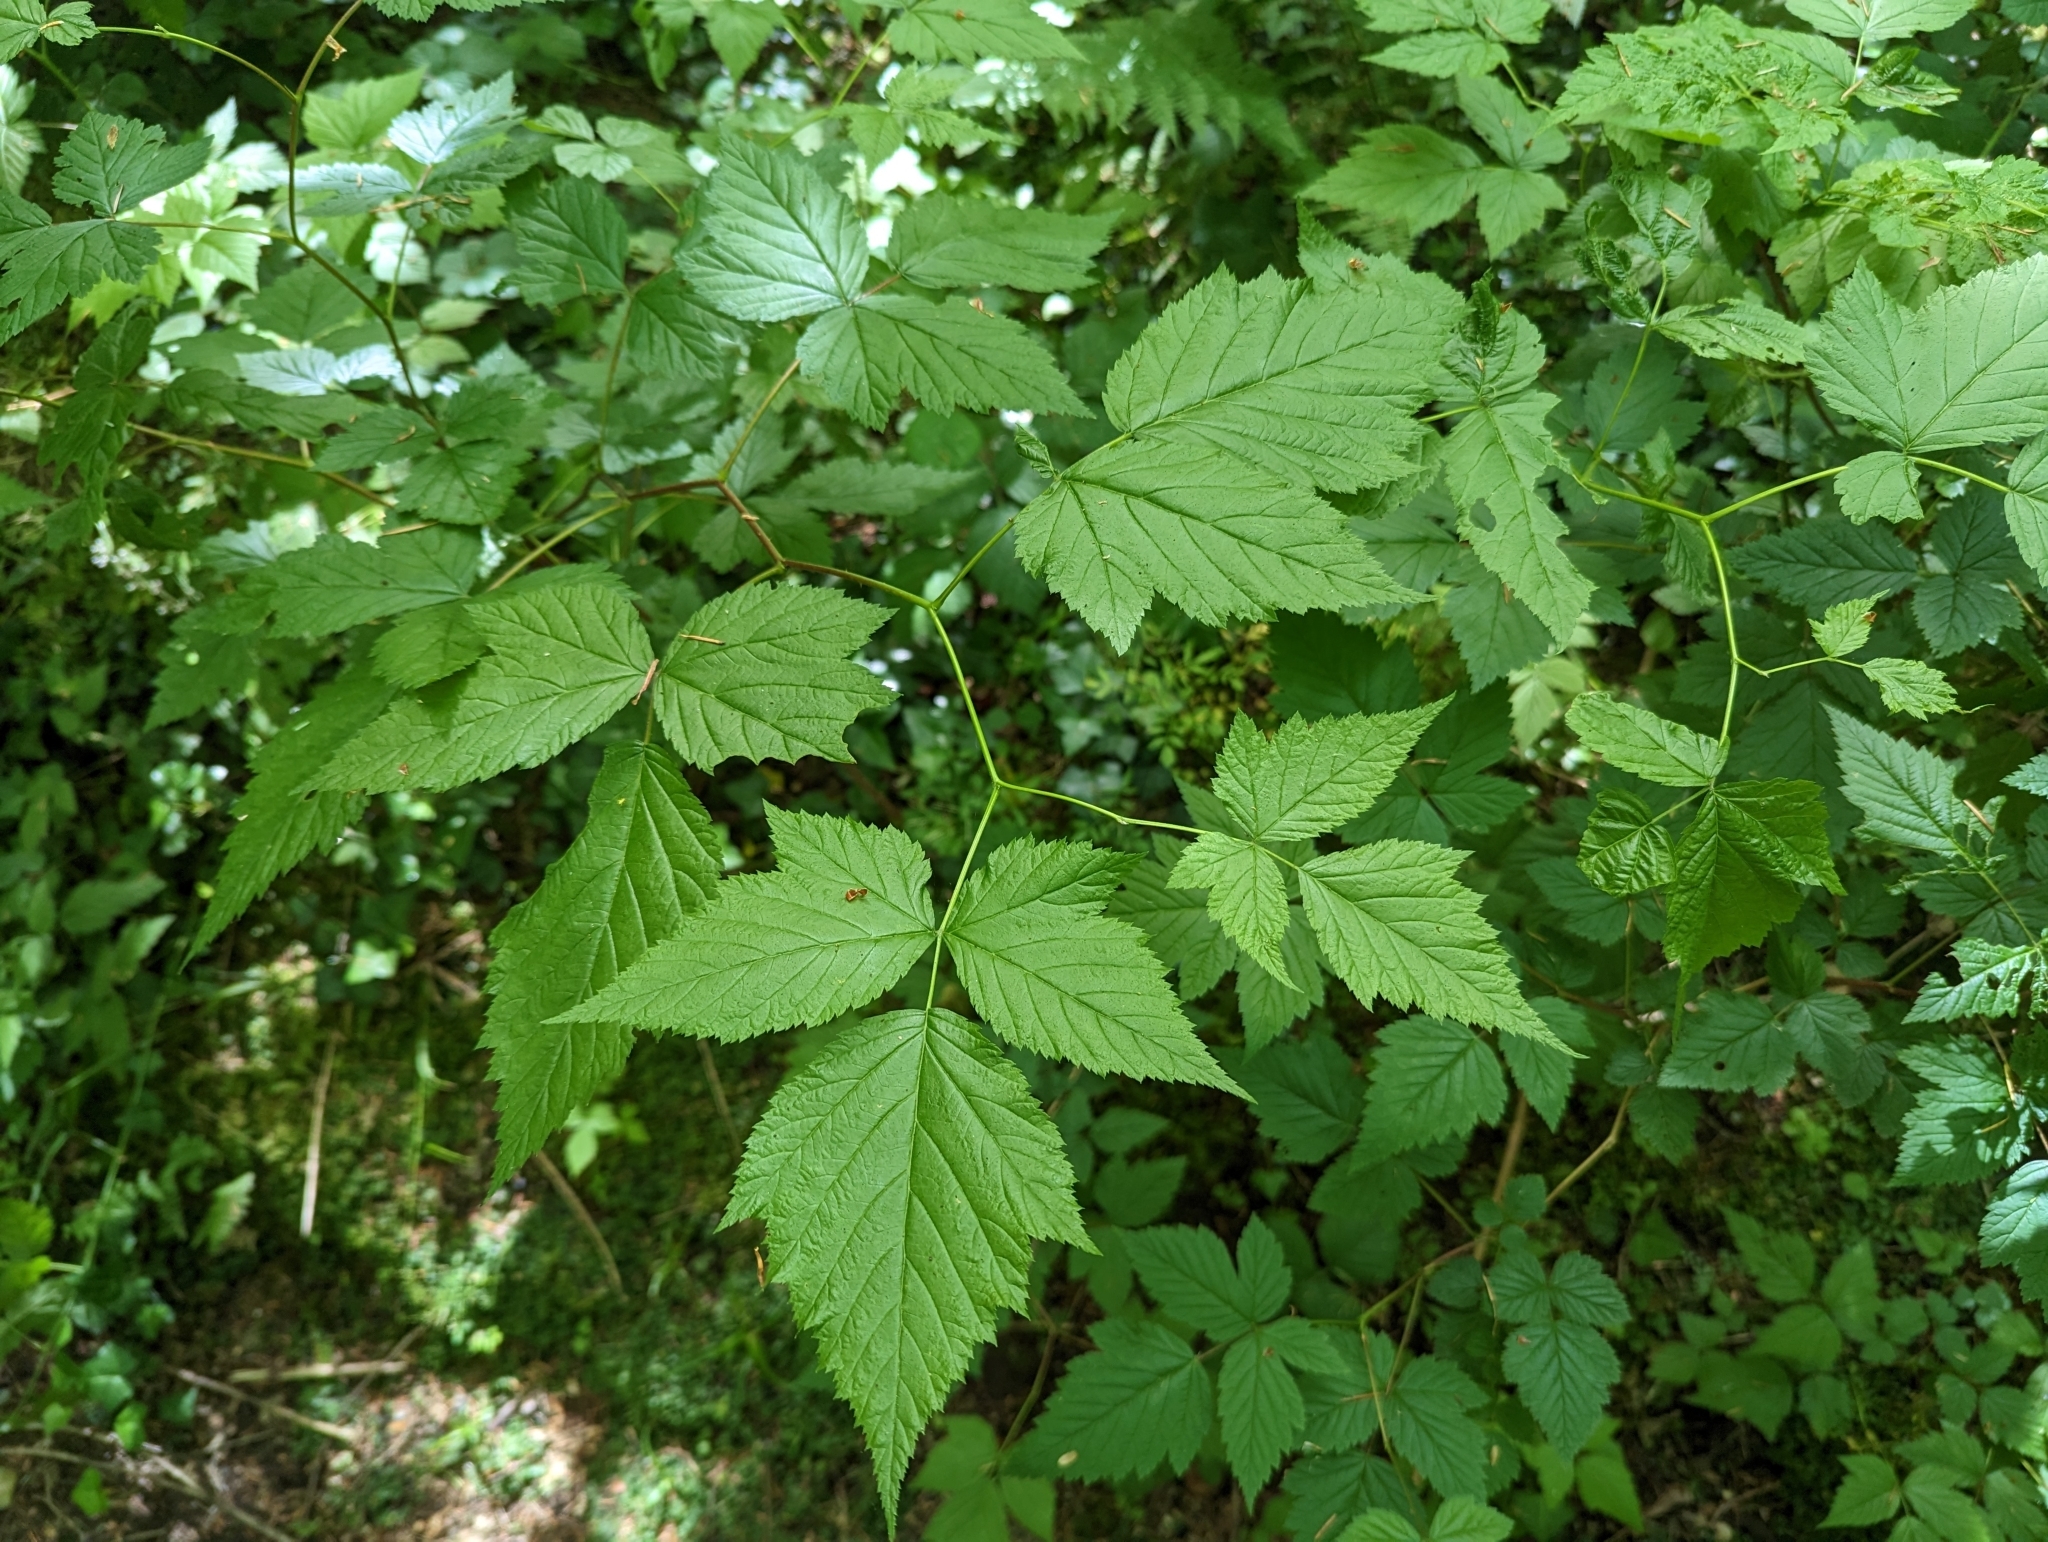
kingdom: Plantae
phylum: Tracheophyta
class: Magnoliopsida
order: Rosales
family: Rosaceae
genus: Rubus
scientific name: Rubus spectabilis
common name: Salmonberry
